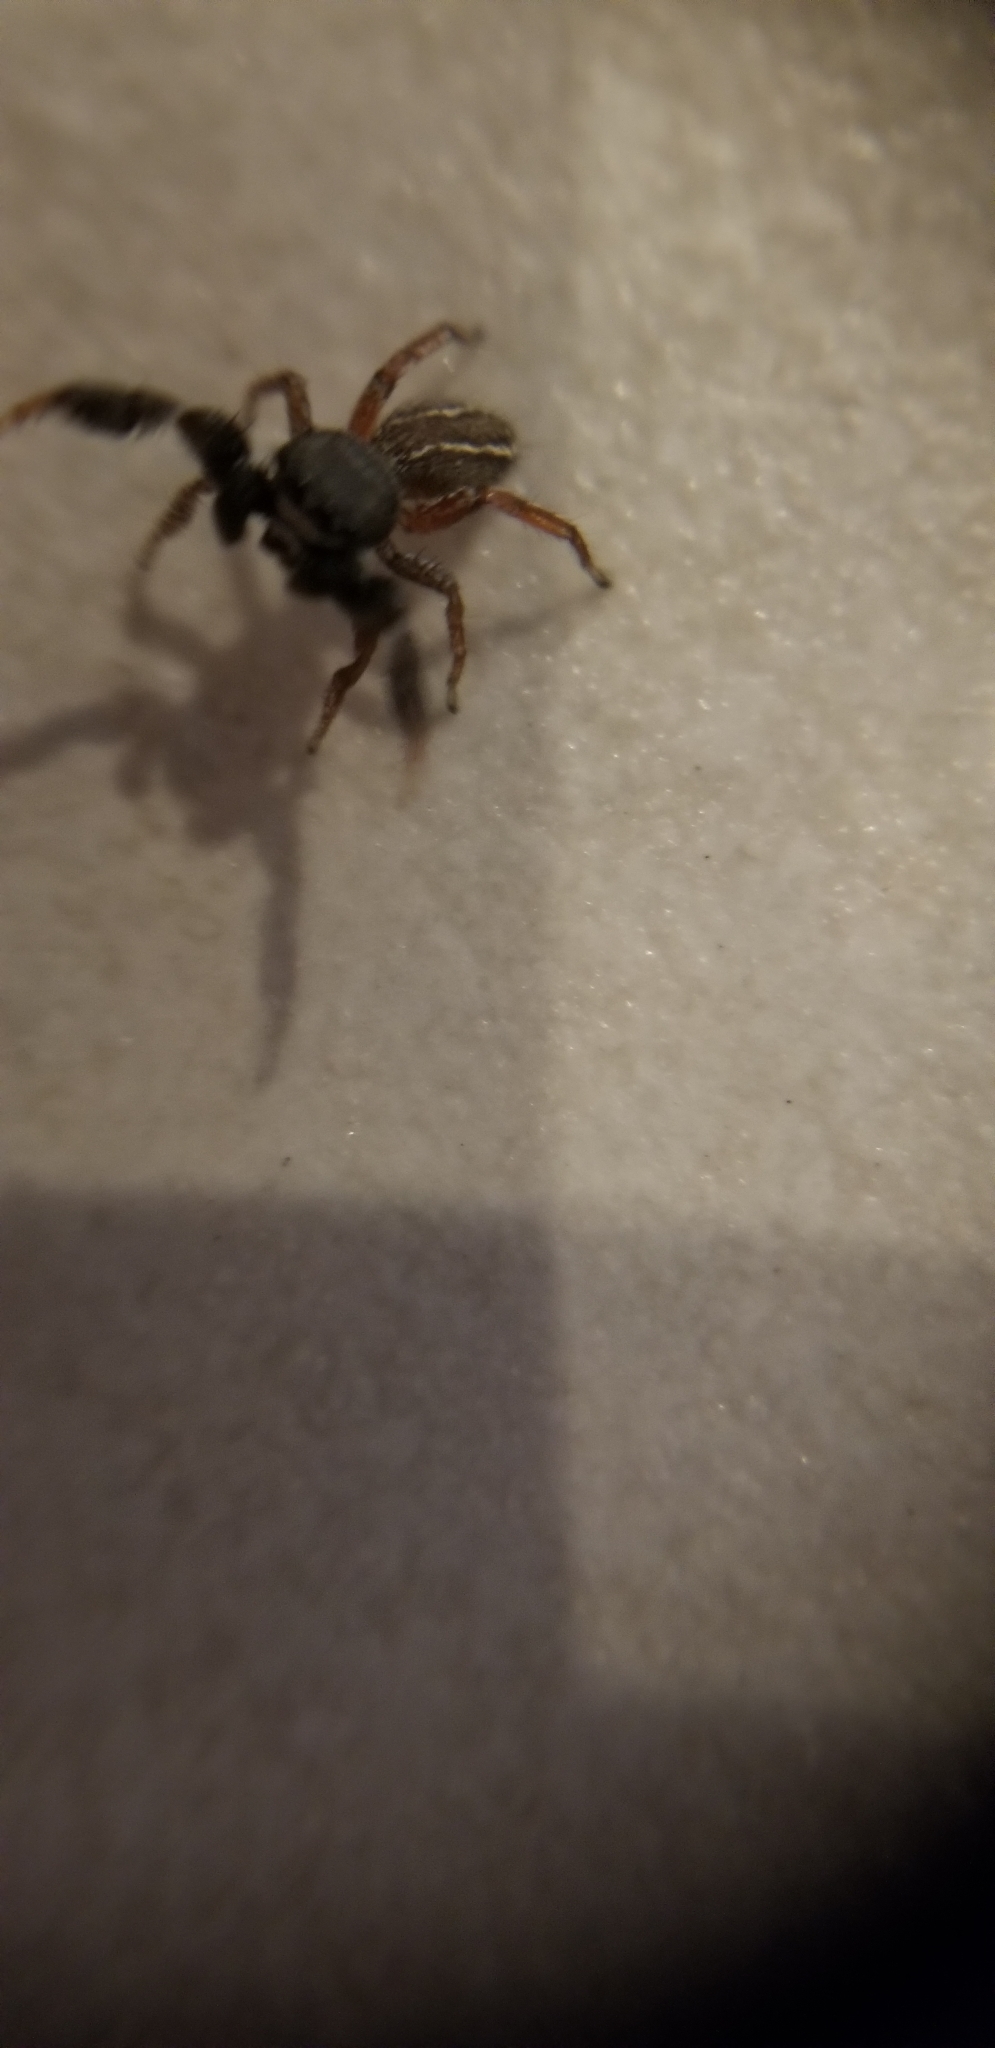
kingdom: Animalia
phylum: Arthropoda
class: Arachnida
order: Araneae
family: Salticidae
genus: Metacyrba
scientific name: Metacyrba taeniola
